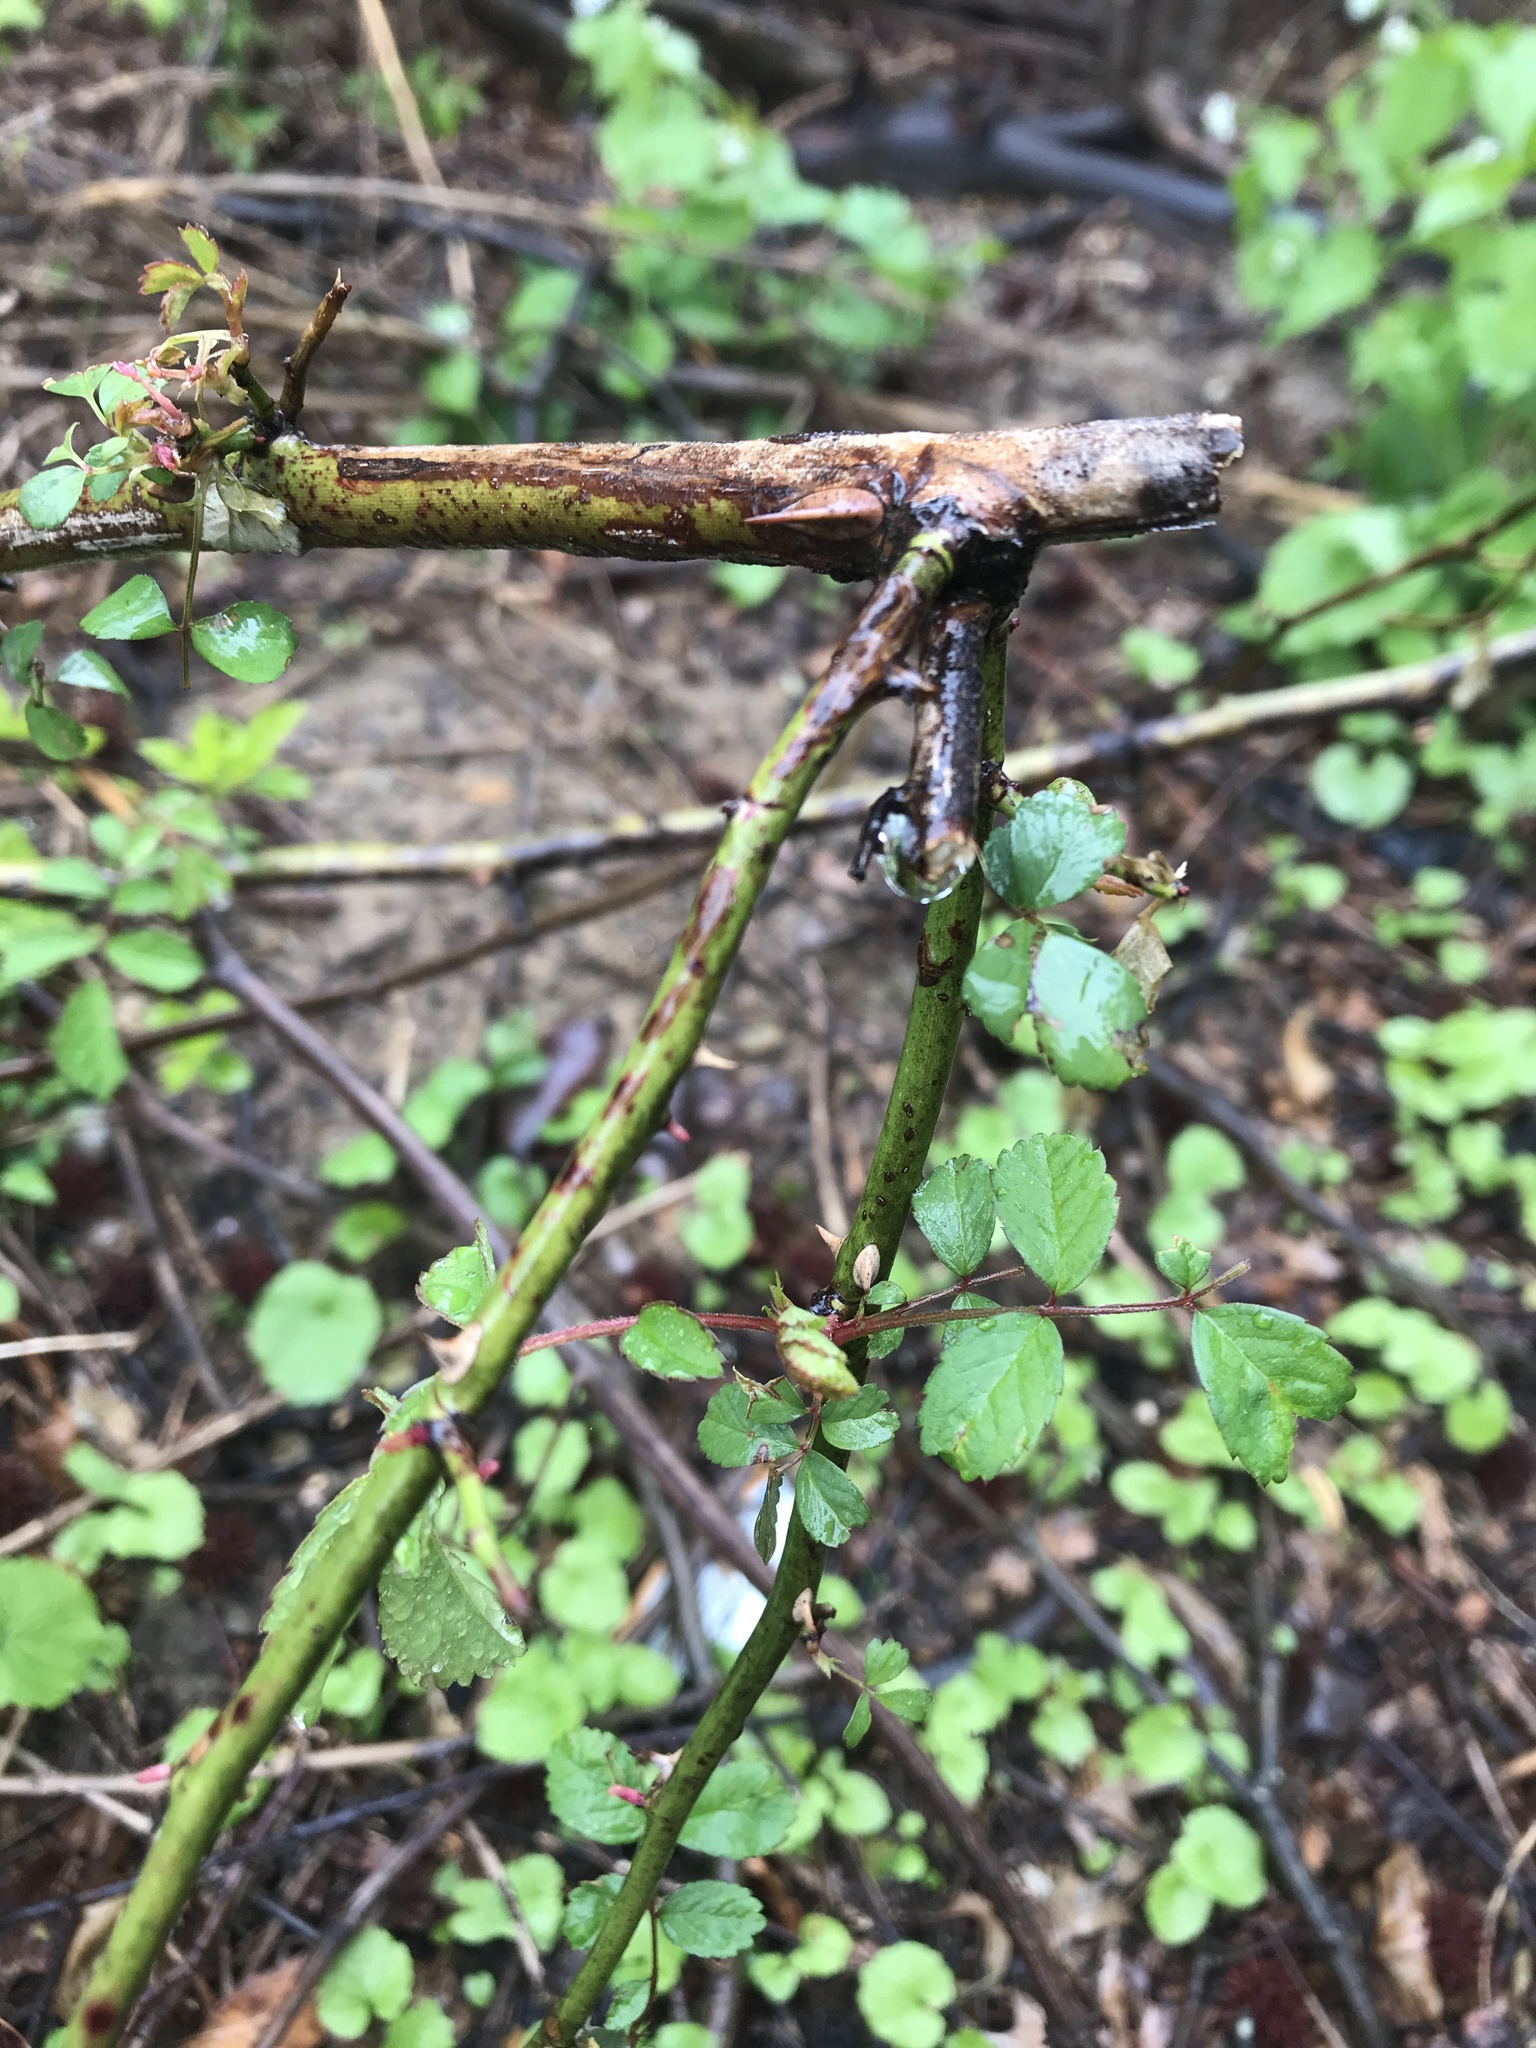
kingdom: Plantae
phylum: Tracheophyta
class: Magnoliopsida
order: Rosales
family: Rosaceae
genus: Rosa
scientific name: Rosa multiflora
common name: Multiflora rose
